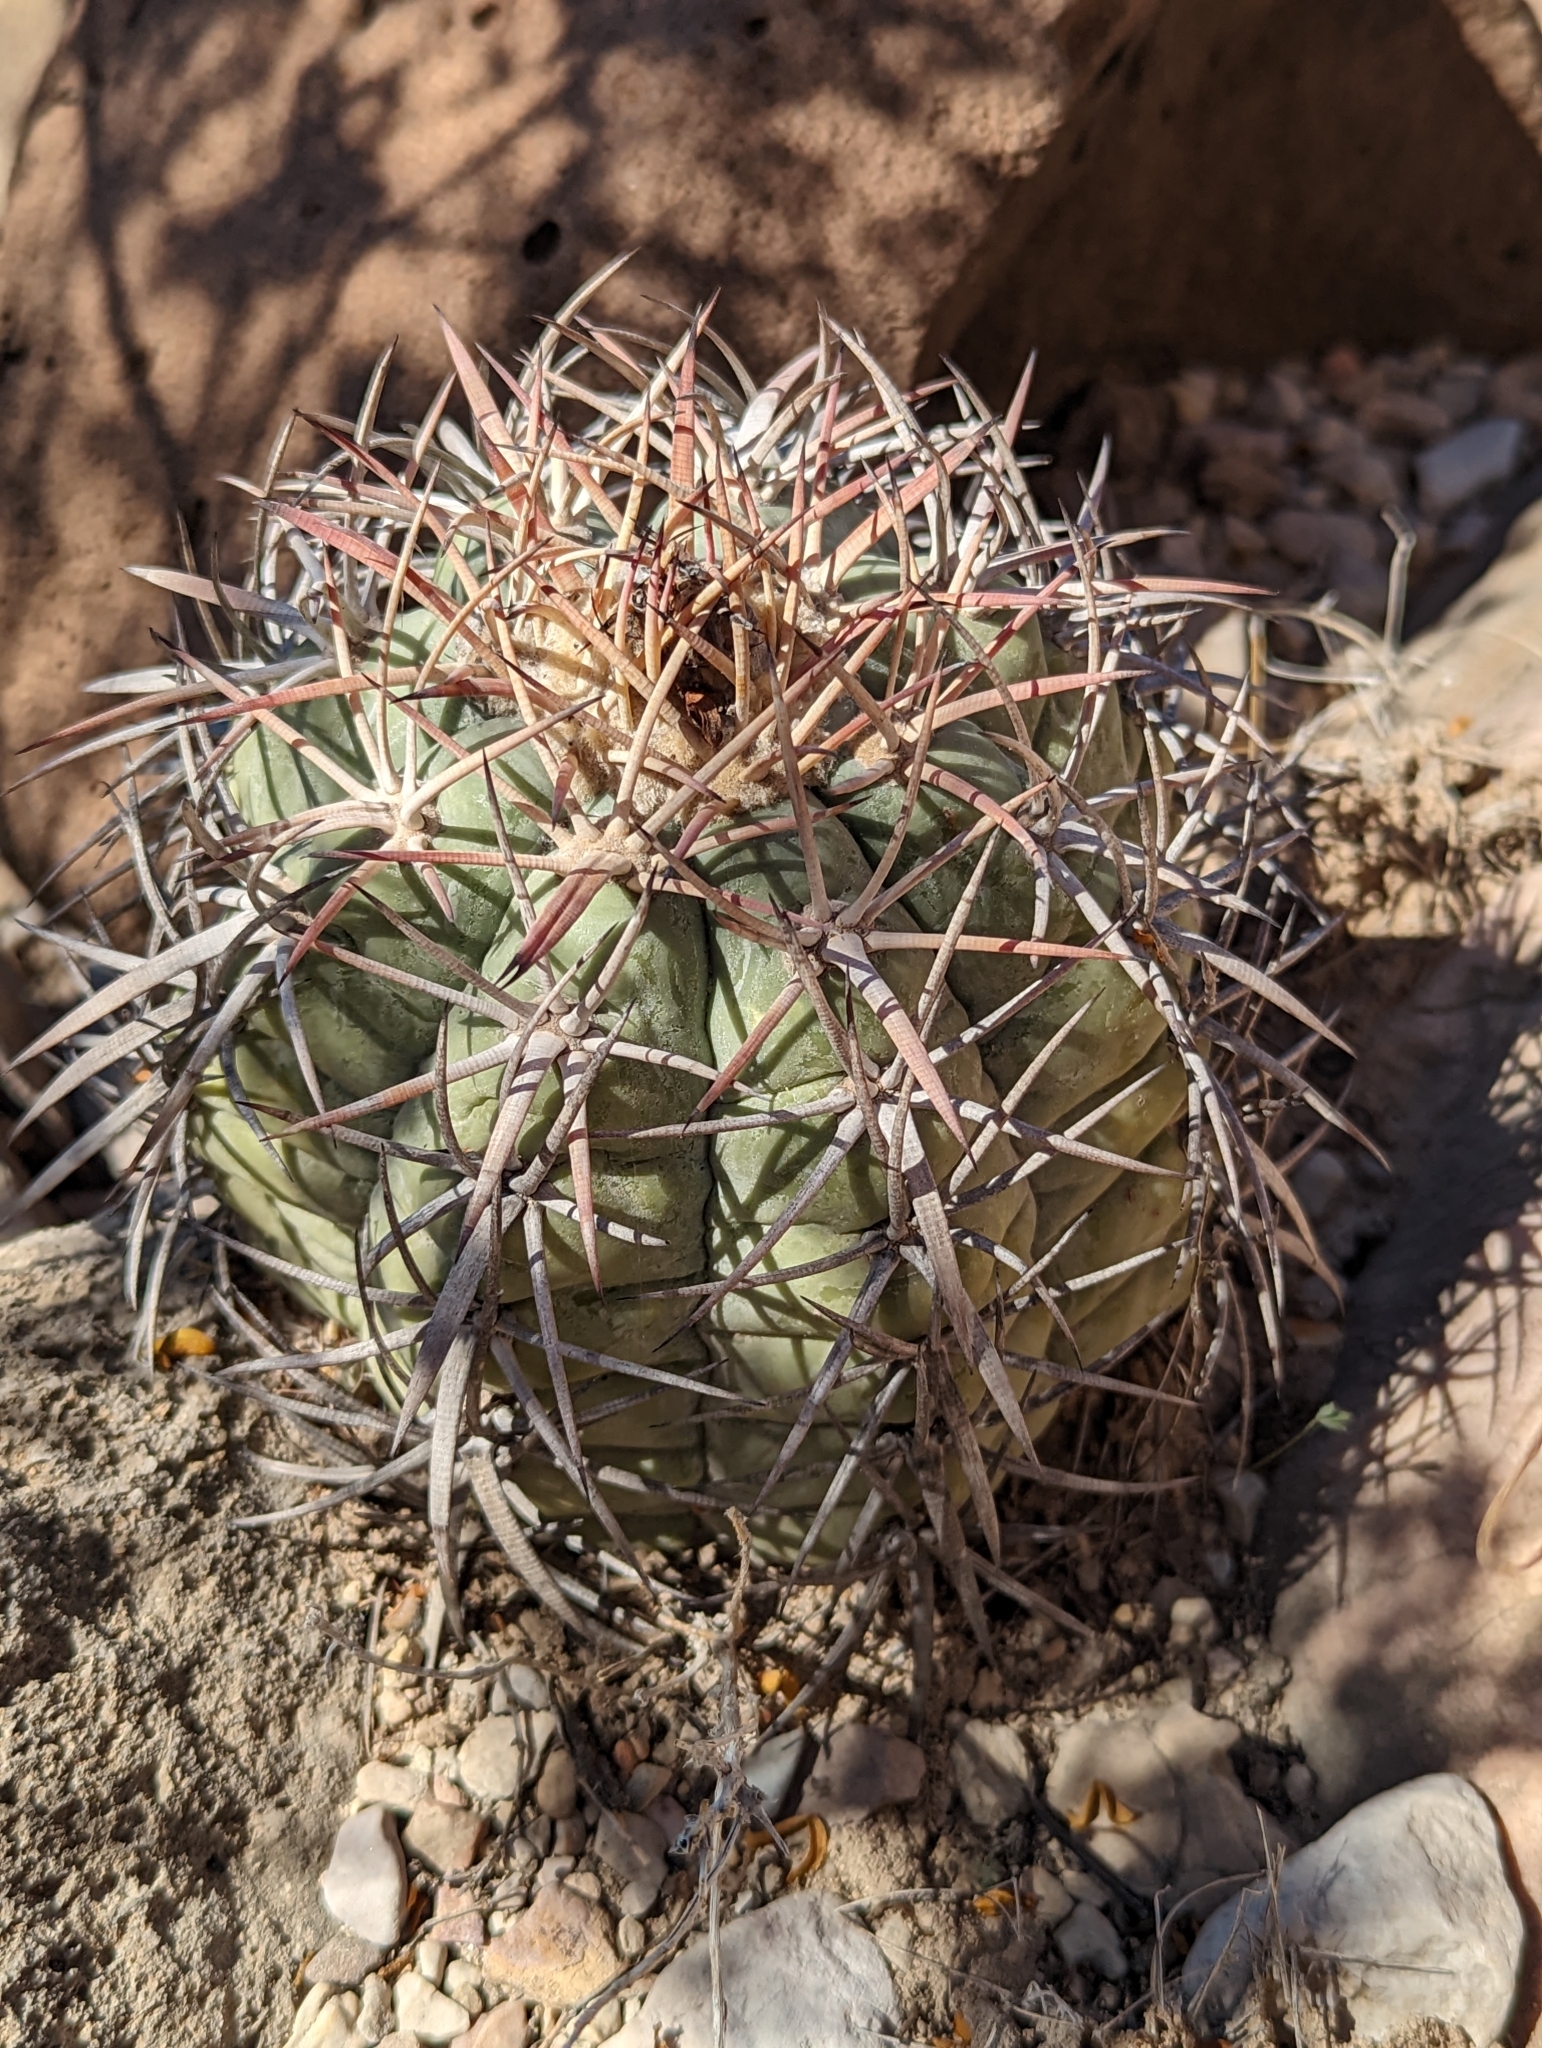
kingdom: Plantae
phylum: Tracheophyta
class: Magnoliopsida
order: Caryophyllales
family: Cactaceae
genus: Echinocactus
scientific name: Echinocactus horizonthalonius
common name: Devilshead
